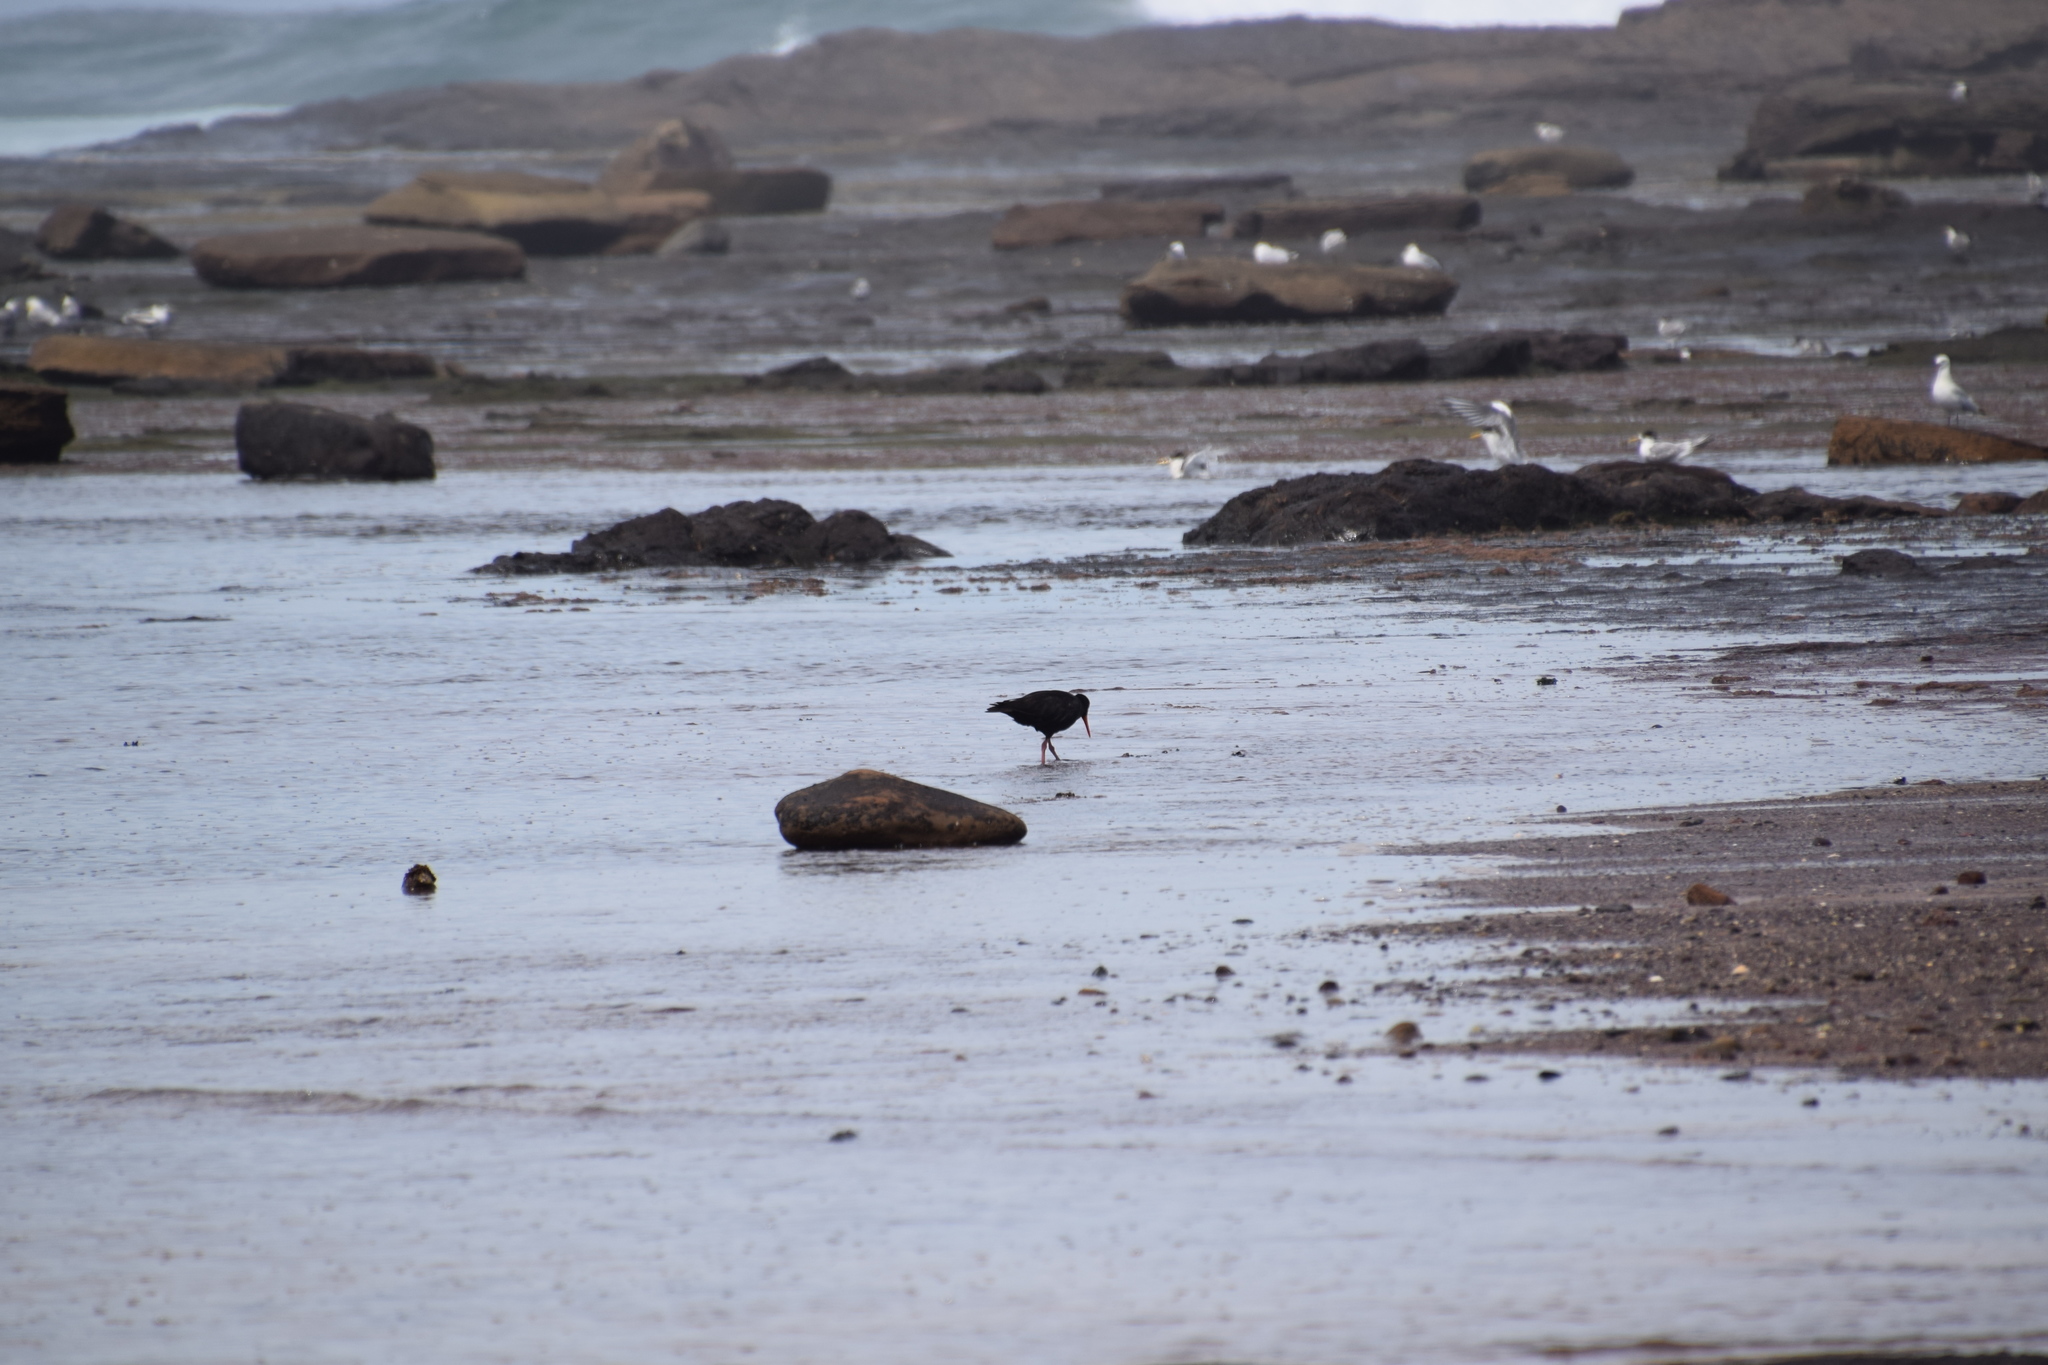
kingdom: Animalia
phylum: Chordata
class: Aves
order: Charadriiformes
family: Haematopodidae
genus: Haematopus
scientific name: Haematopus fuliginosus
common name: Sooty oystercatcher
